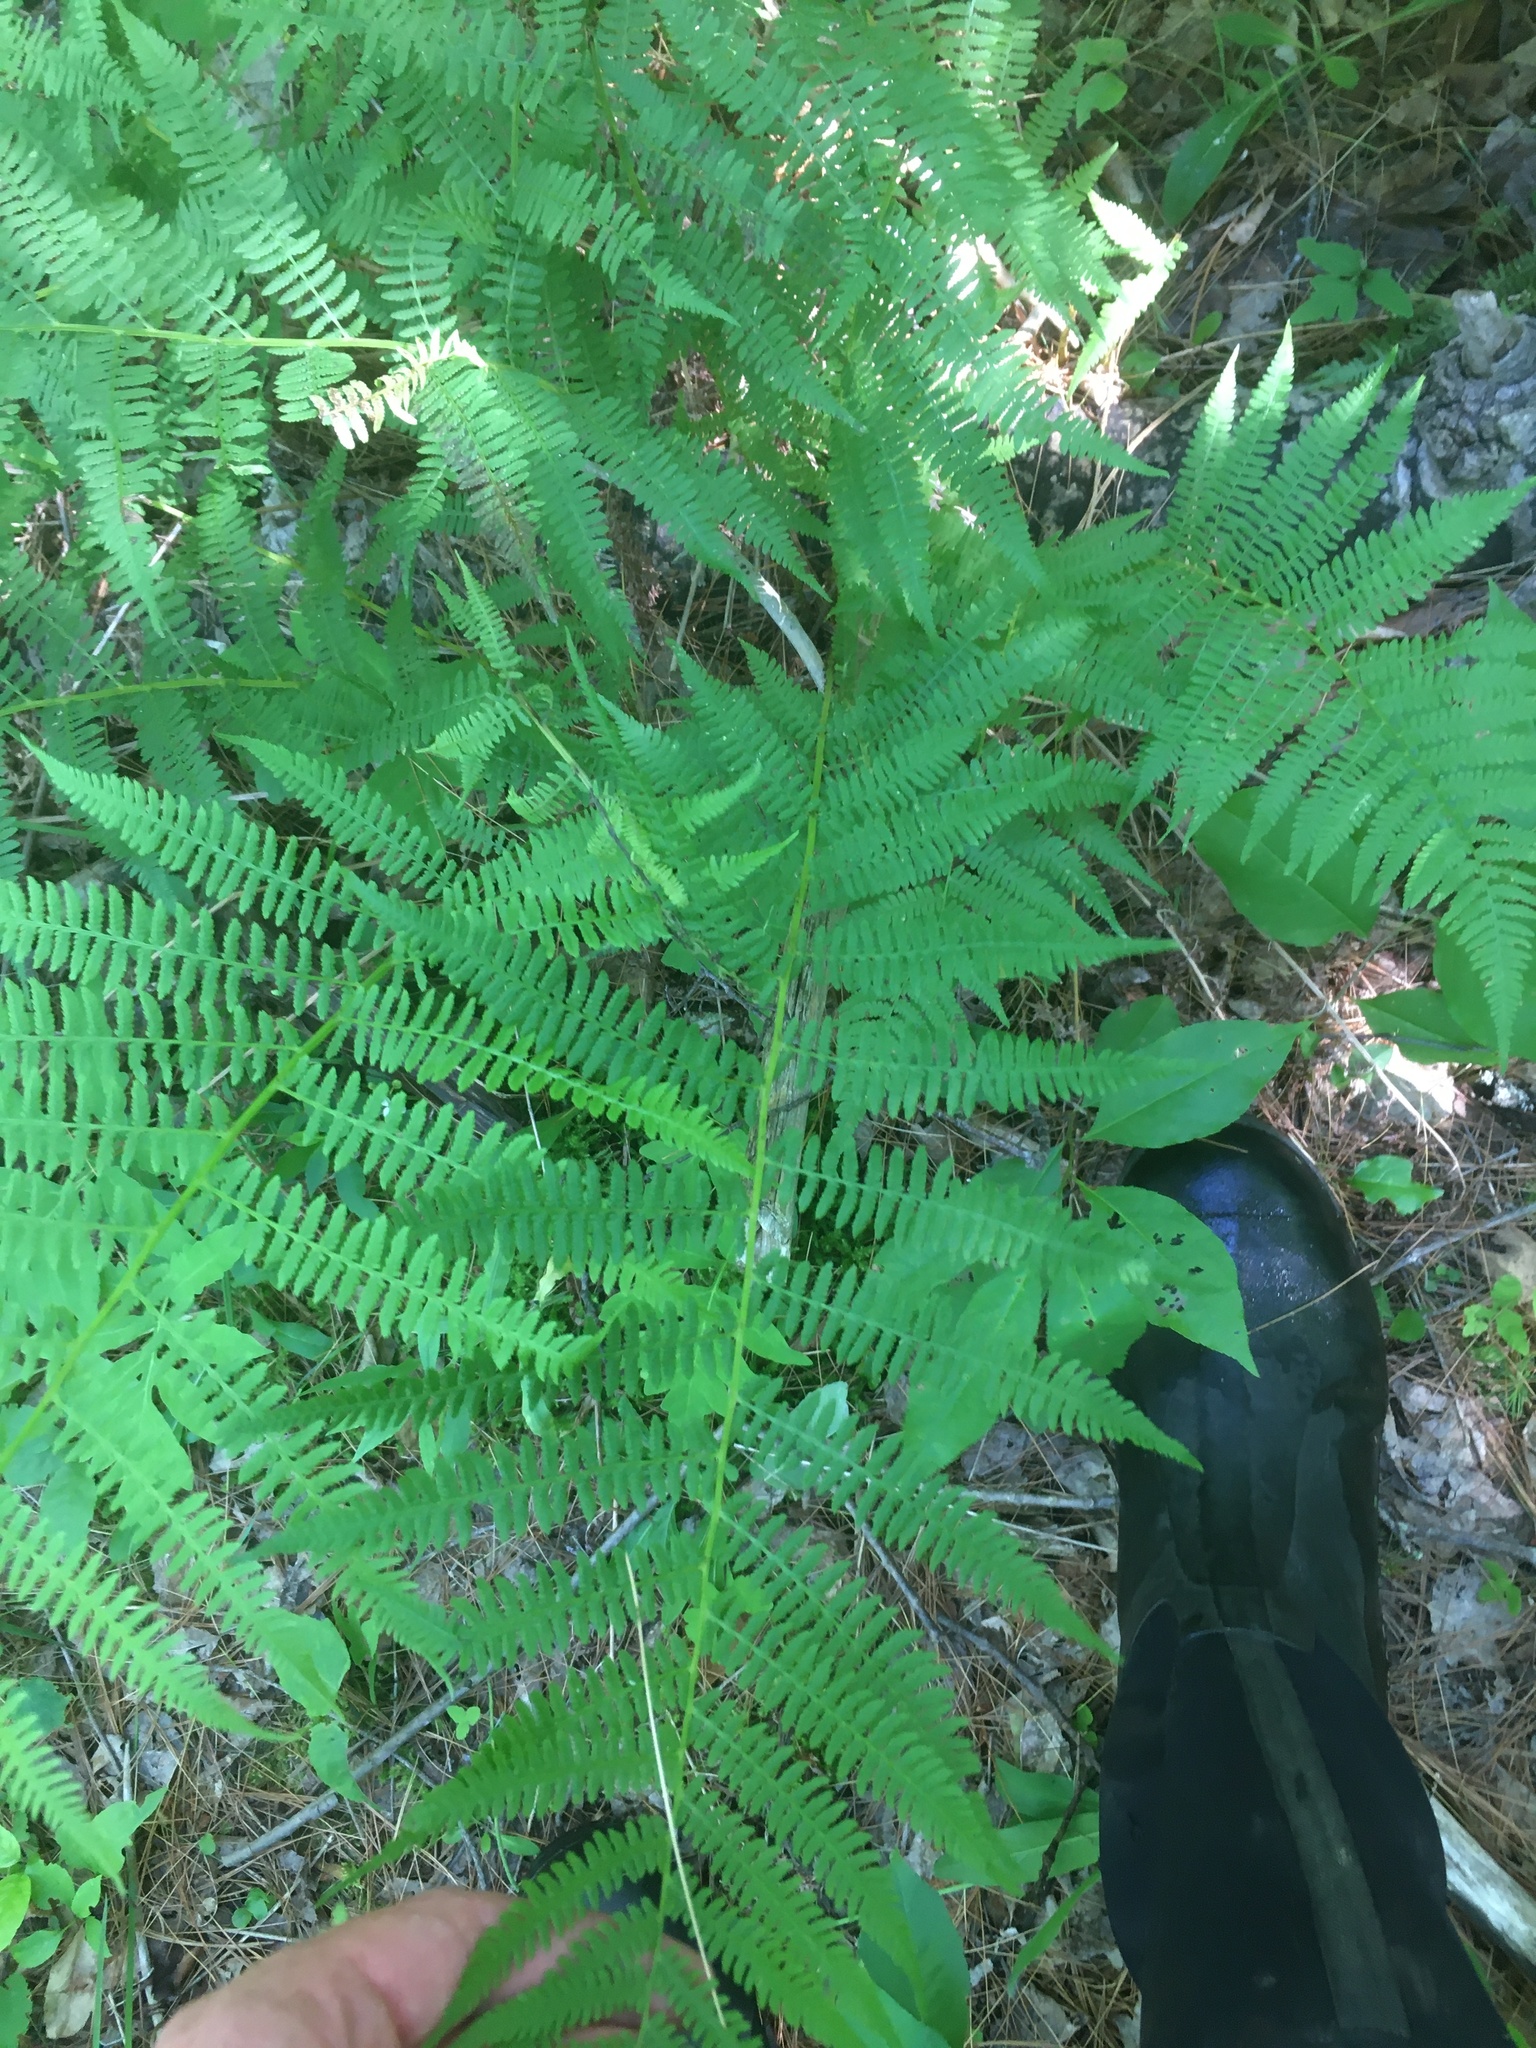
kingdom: Plantae
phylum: Tracheophyta
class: Polypodiopsida
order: Polypodiales
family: Athyriaceae
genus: Athyrium
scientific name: Athyrium angustum
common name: Northern lady fern
